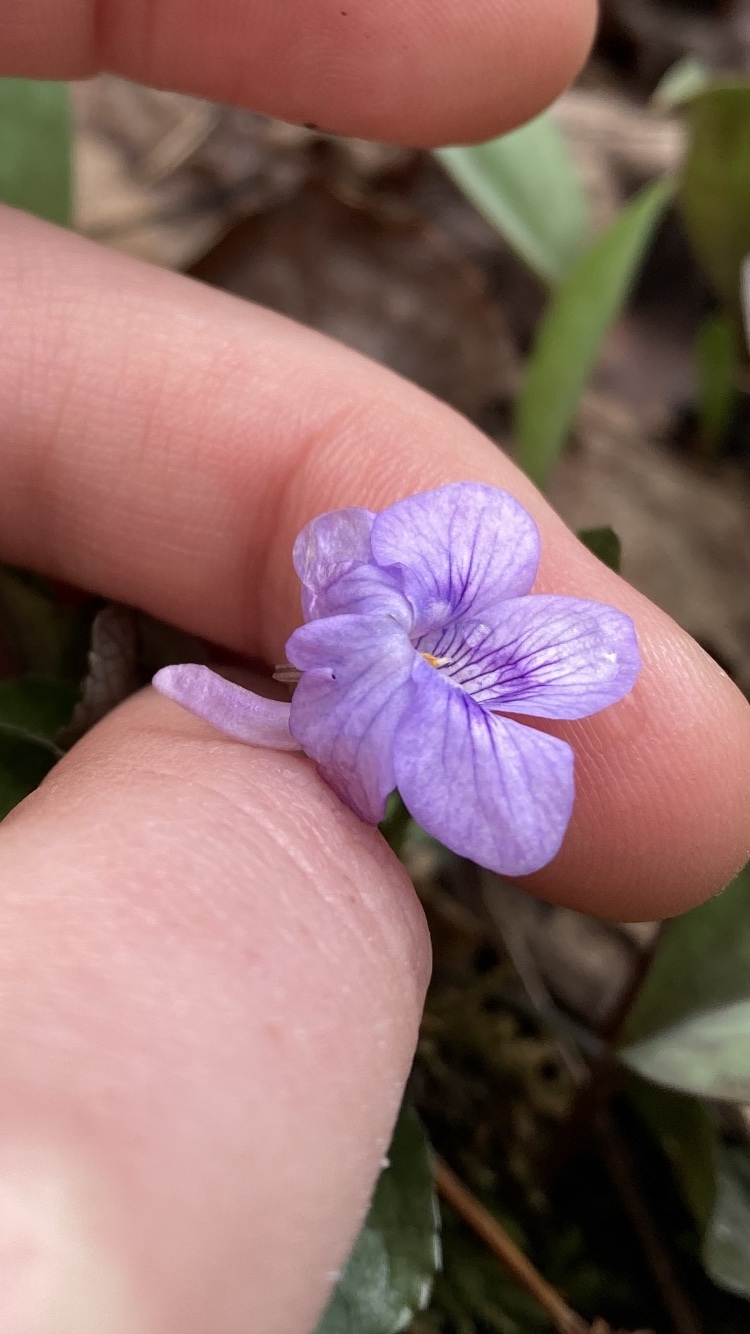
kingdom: Plantae
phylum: Tracheophyta
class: Magnoliopsida
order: Malpighiales
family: Violaceae
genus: Viola
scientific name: Viola rostrata
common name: Long-spur violet
